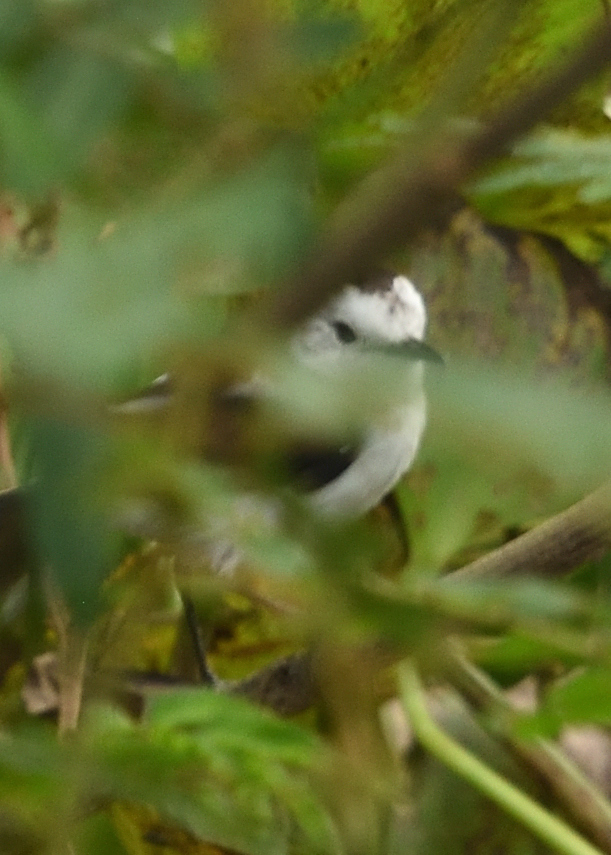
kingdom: Animalia
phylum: Chordata
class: Aves
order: Passeriformes
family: Tyrannidae
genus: Fluvicola
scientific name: Fluvicola pica
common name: Pied water-tyrant
